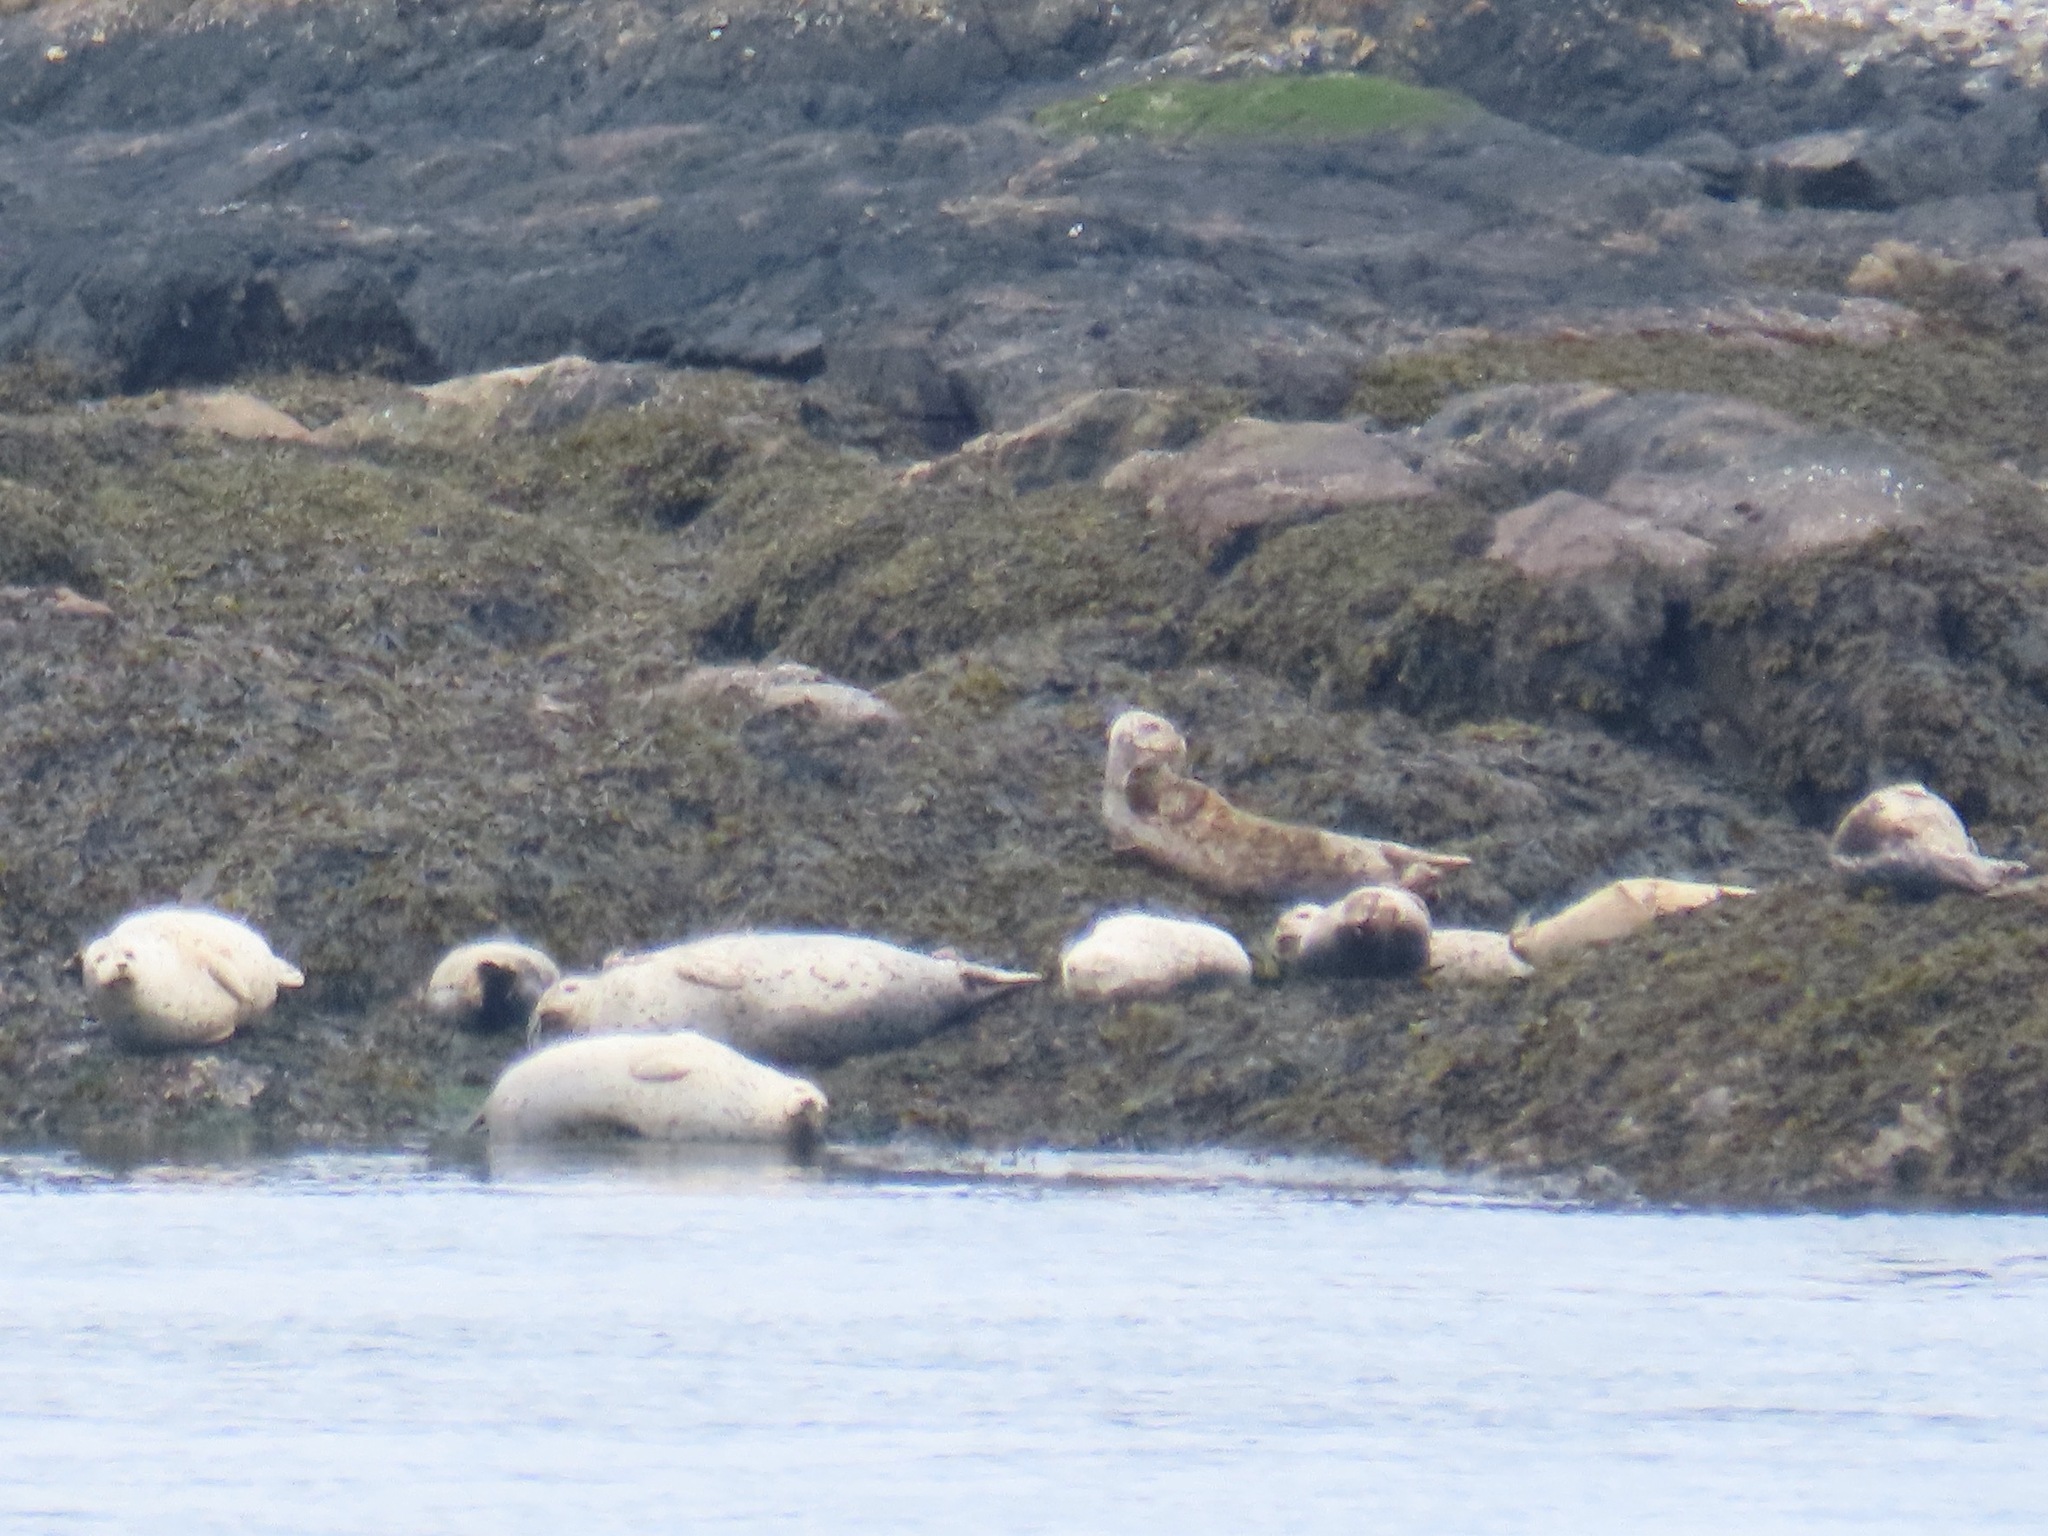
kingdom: Animalia
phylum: Chordata
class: Mammalia
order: Carnivora
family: Phocidae
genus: Phoca
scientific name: Phoca vitulina
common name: Harbor seal
